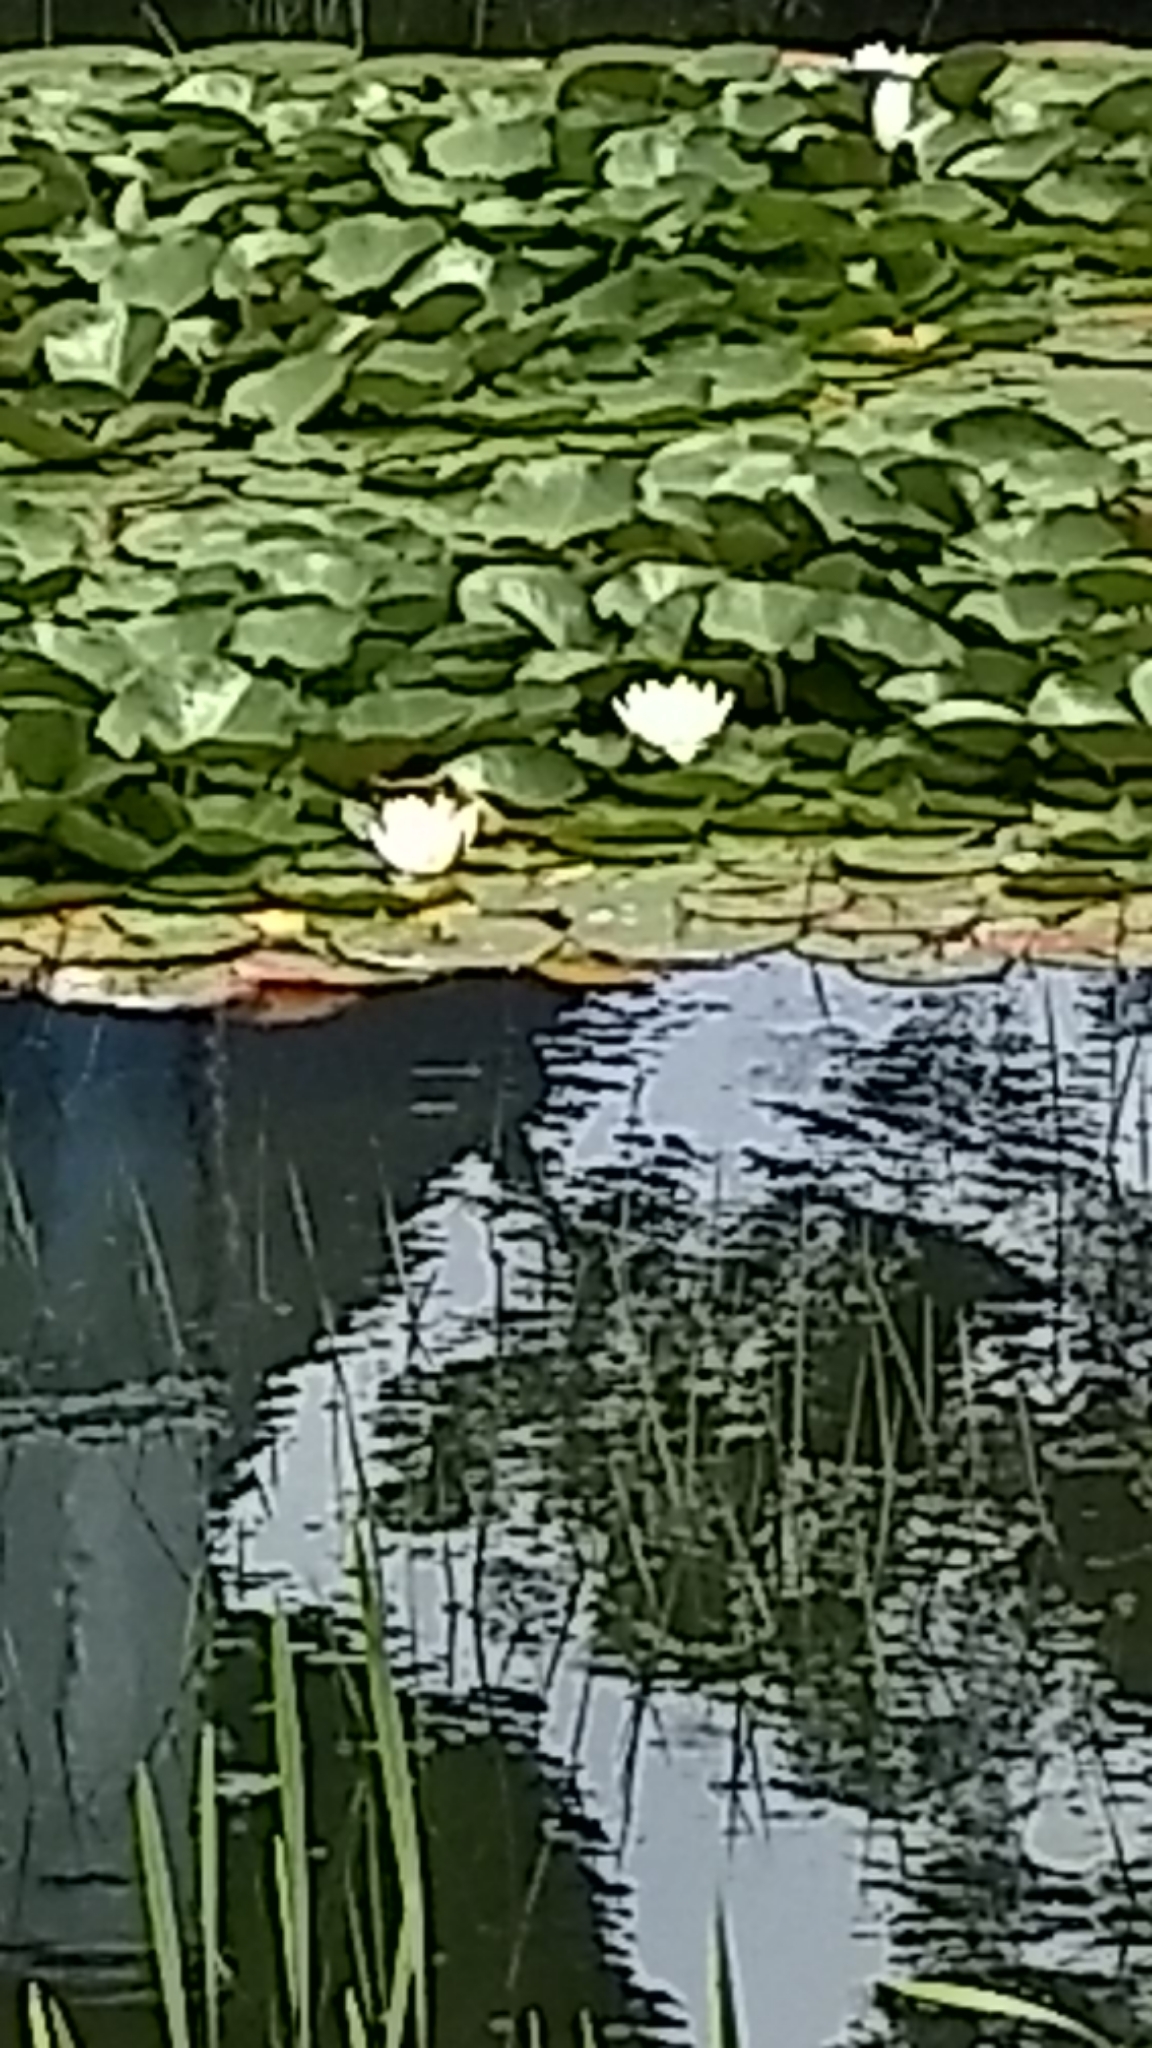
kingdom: Plantae
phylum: Tracheophyta
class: Magnoliopsida
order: Nymphaeales
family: Nymphaeaceae
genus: Nymphaea
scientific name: Nymphaea odorata
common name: Fragrant water-lily
